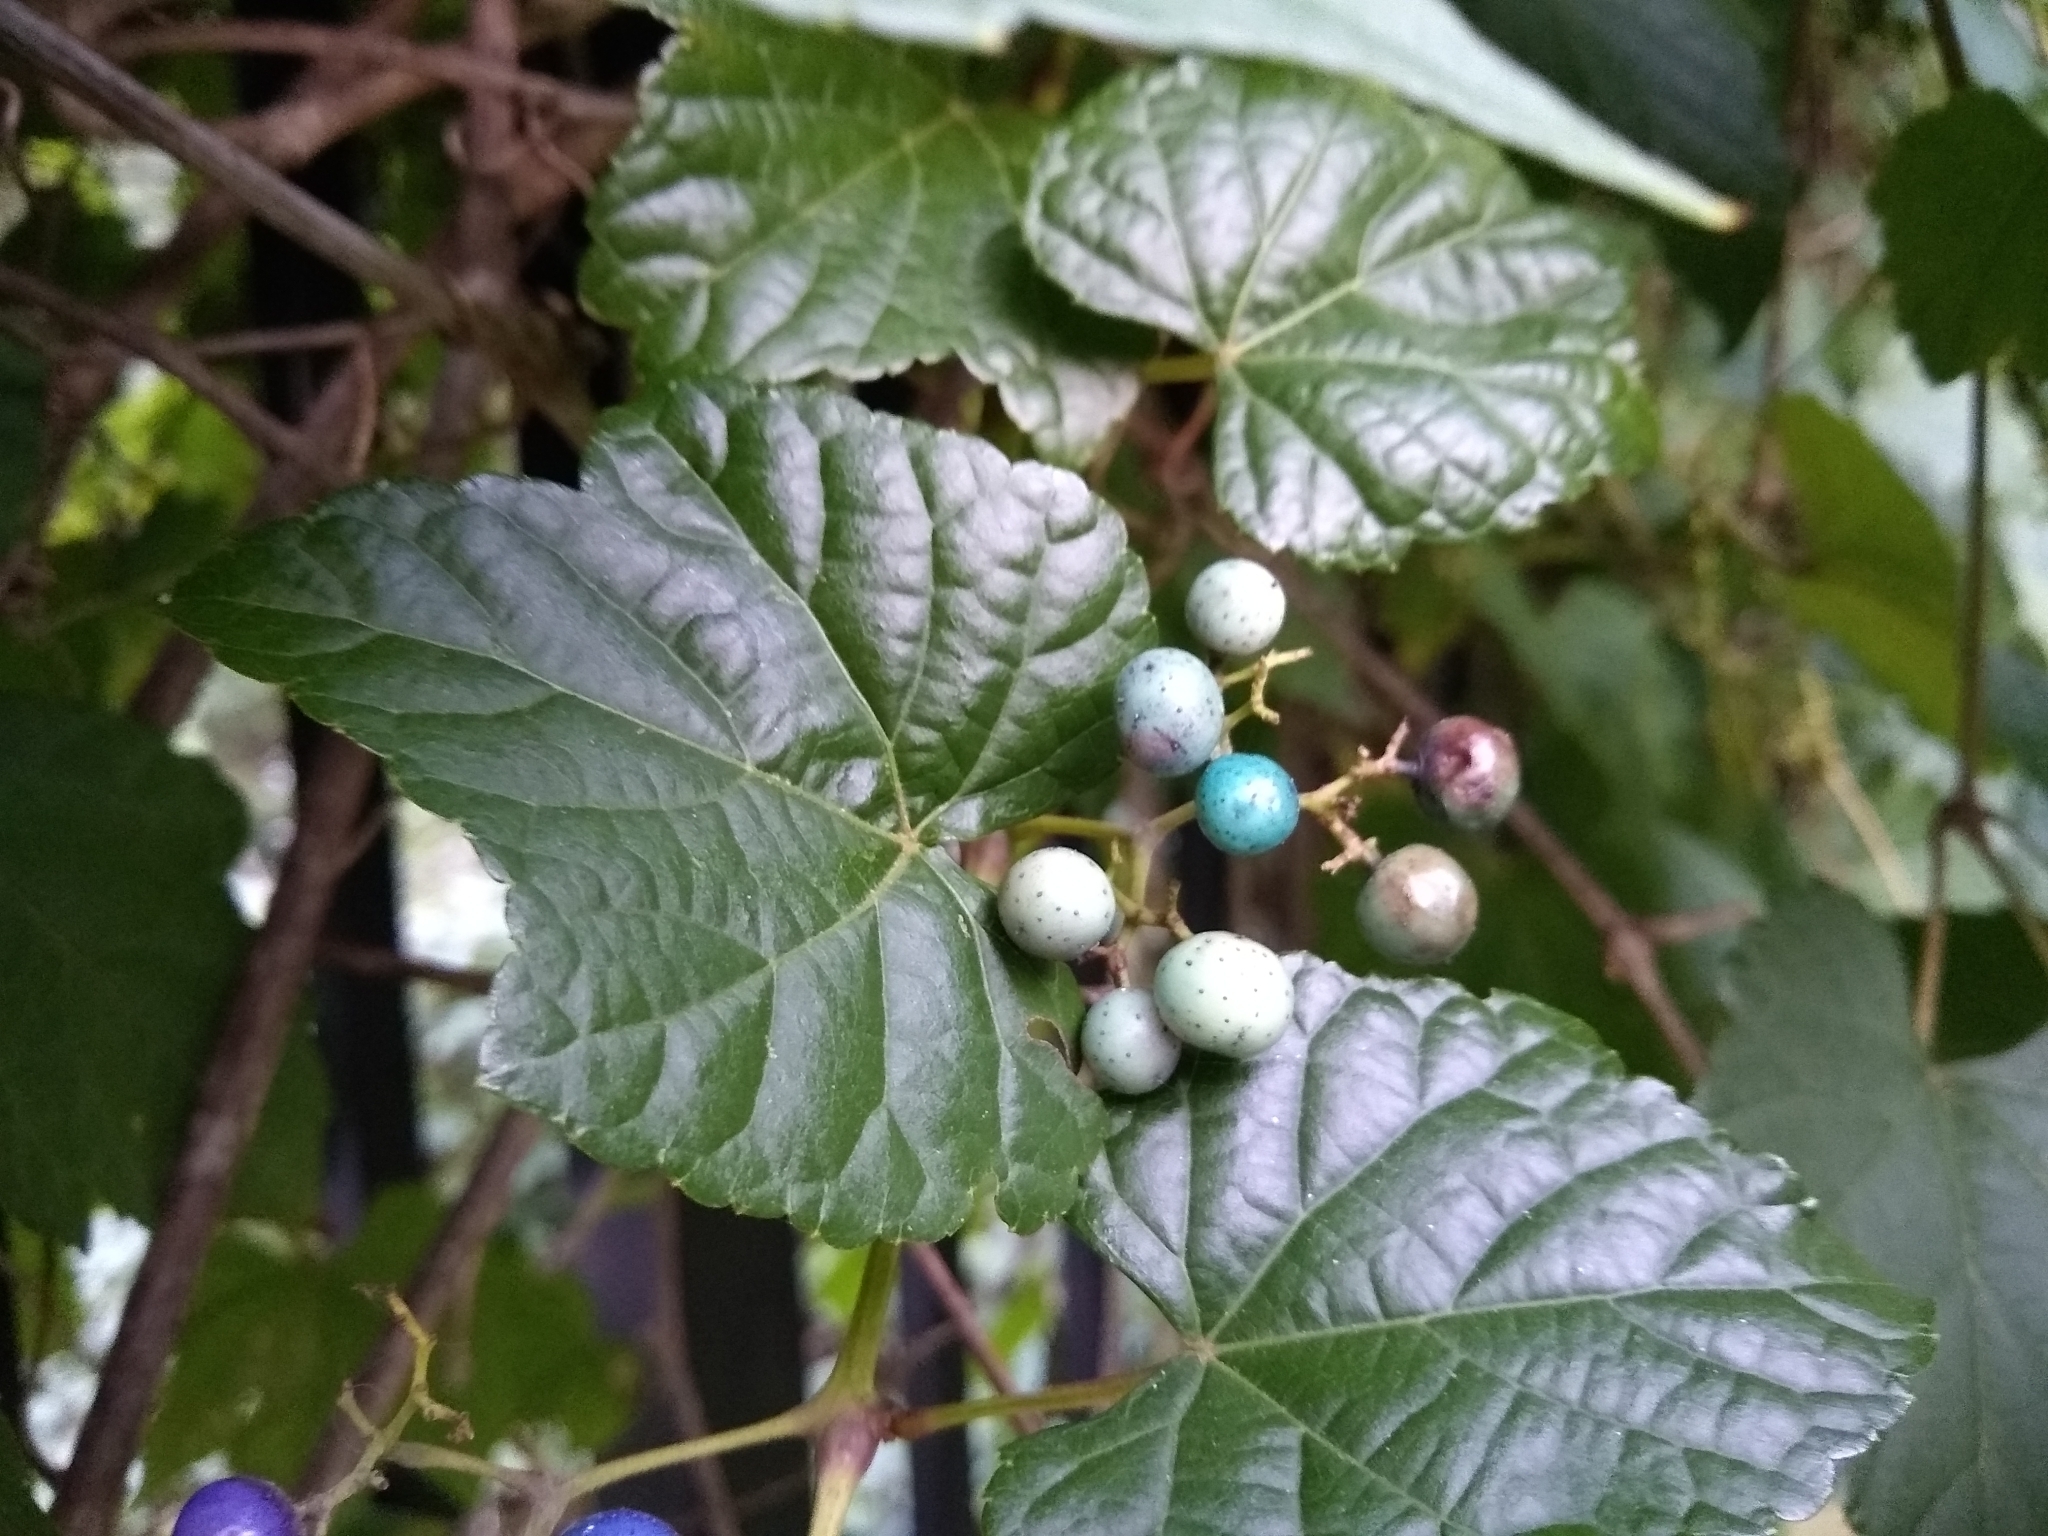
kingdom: Plantae
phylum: Tracheophyta
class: Magnoliopsida
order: Vitales
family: Vitaceae
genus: Ampelopsis
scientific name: Ampelopsis glandulosa
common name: Amur peppervine
